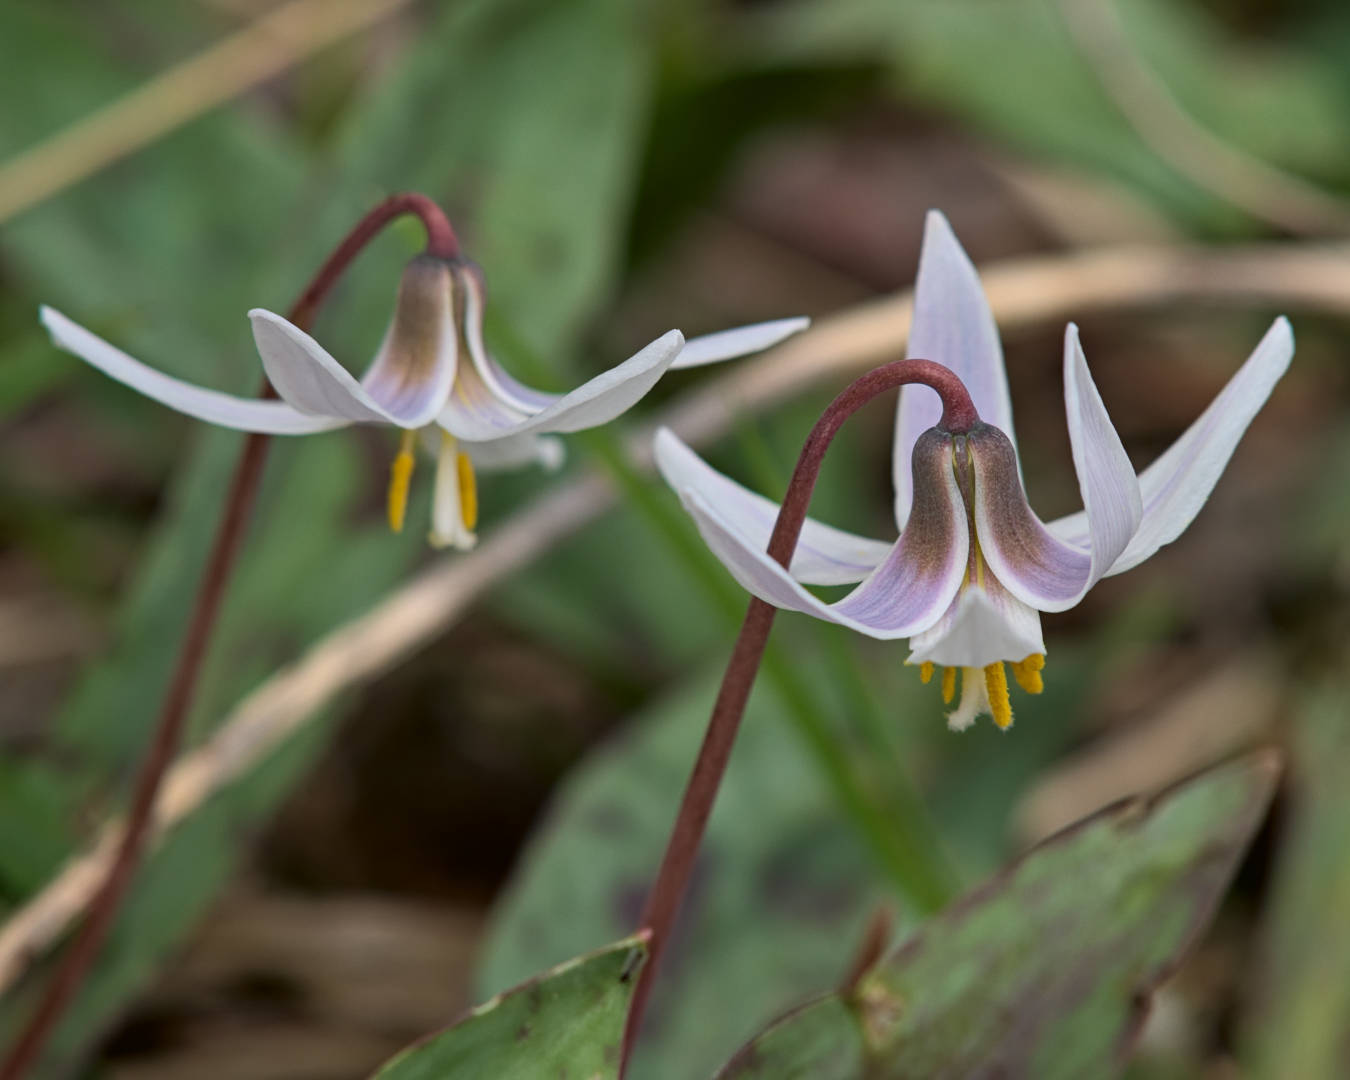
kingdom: Plantae
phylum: Tracheophyta
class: Liliopsida
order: Liliales
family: Liliaceae
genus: Erythronium
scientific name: Erythronium albidum
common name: White trout-lily
